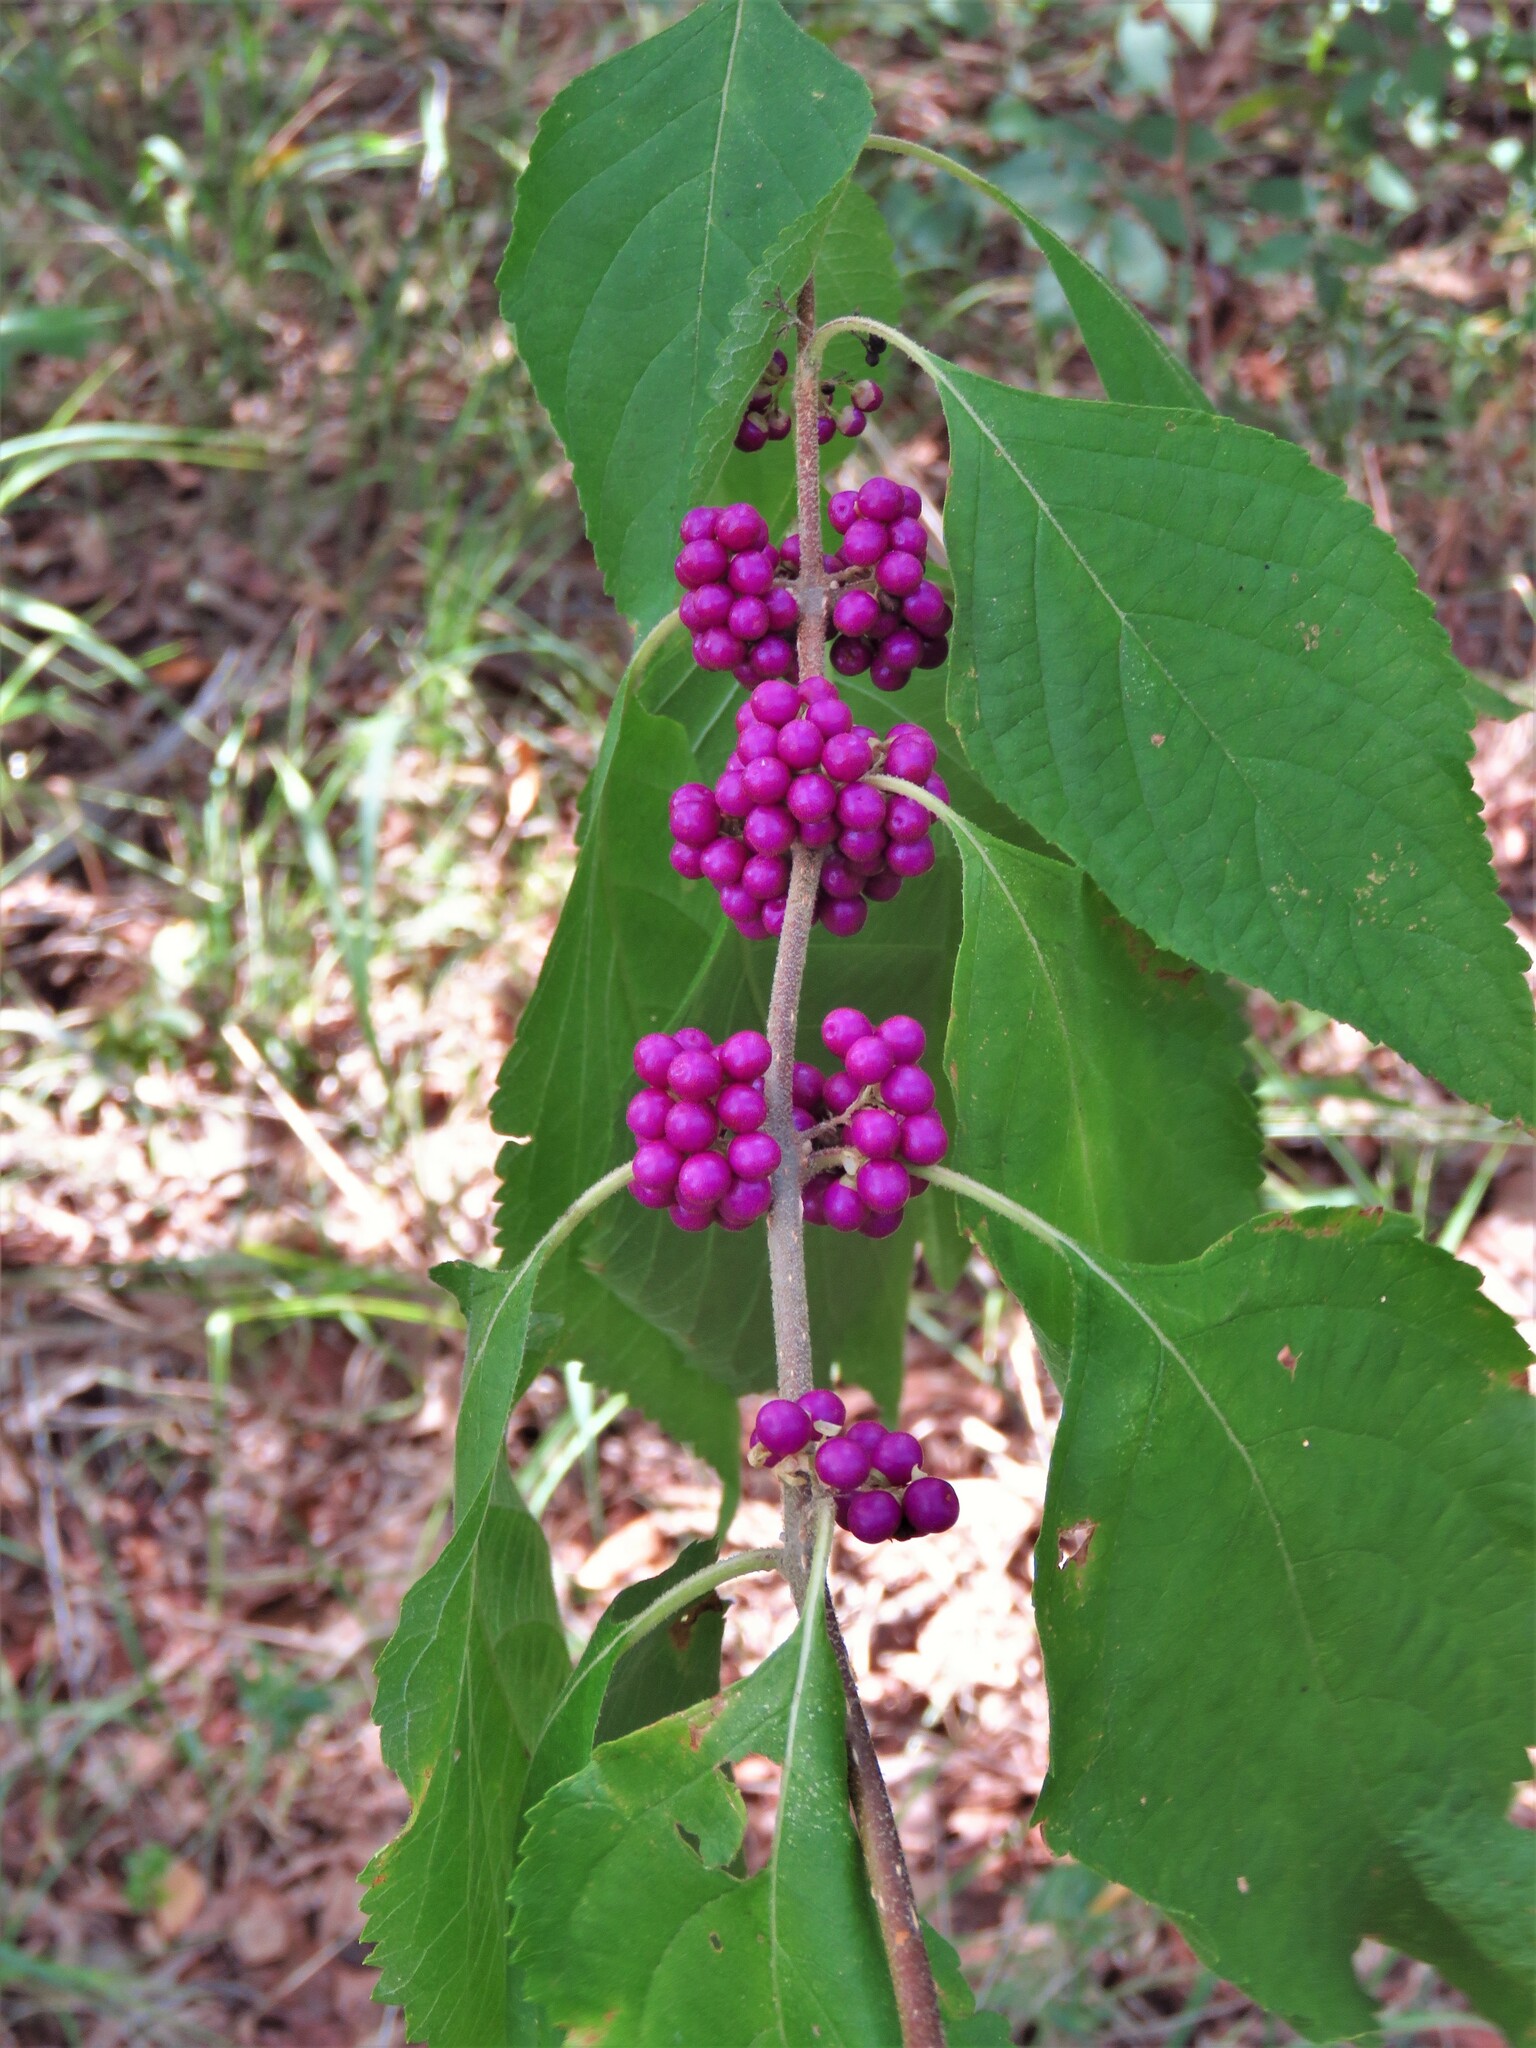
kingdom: Plantae
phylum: Tracheophyta
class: Magnoliopsida
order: Lamiales
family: Lamiaceae
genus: Callicarpa
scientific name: Callicarpa americana
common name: American beautyberry
